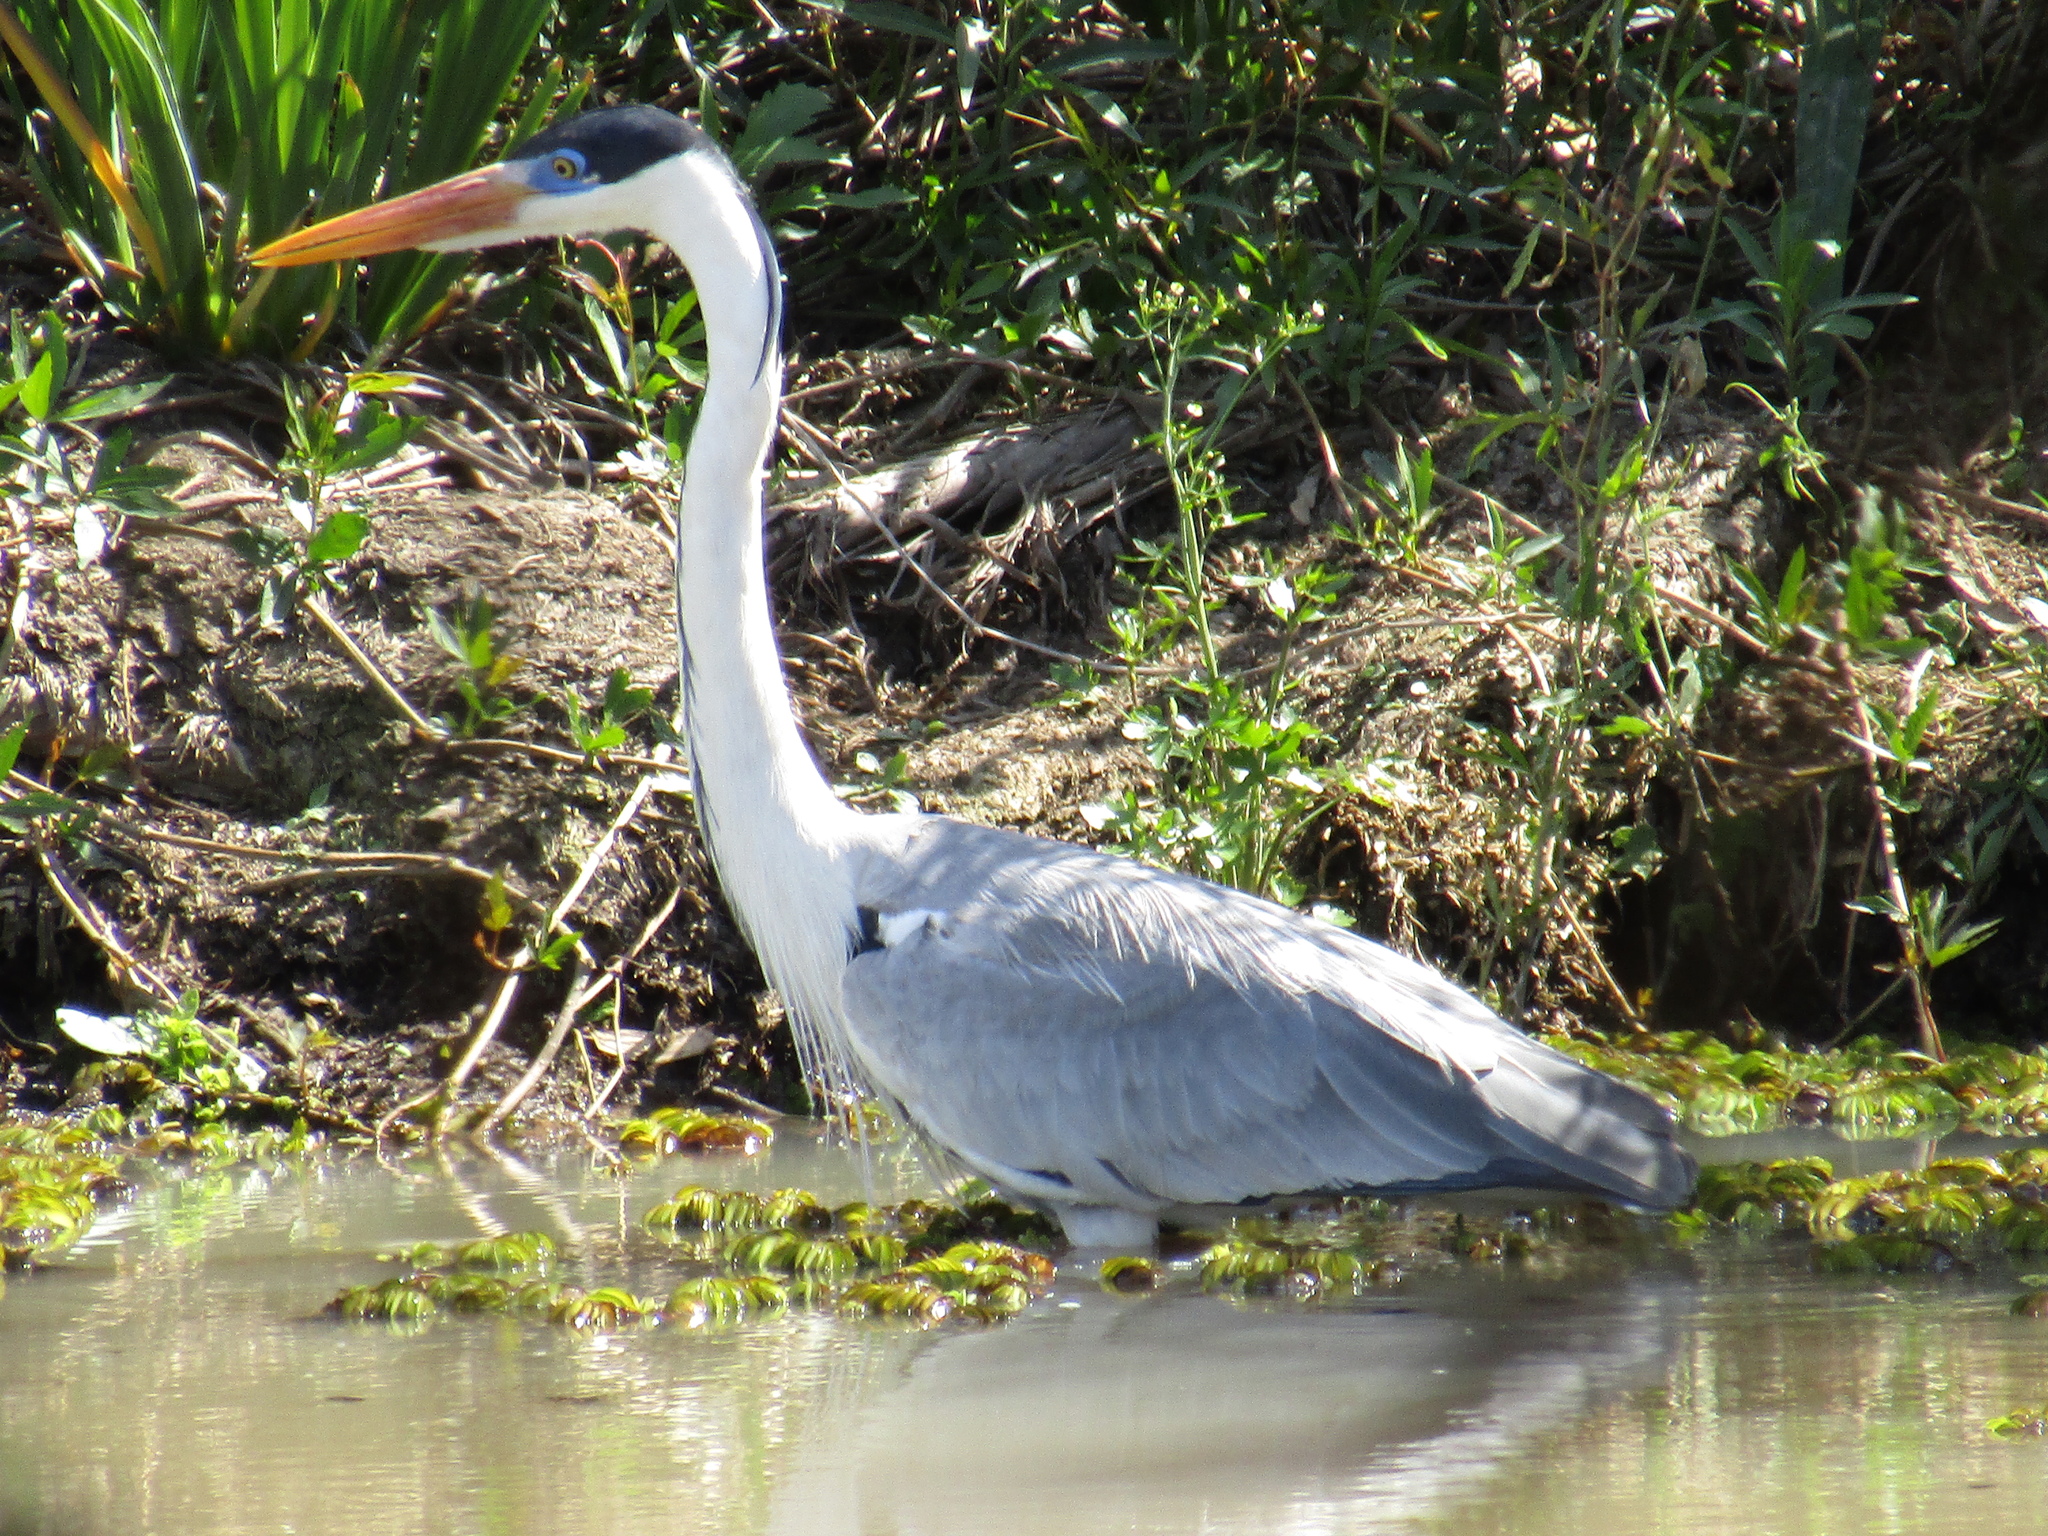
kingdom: Animalia
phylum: Chordata
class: Aves
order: Pelecaniformes
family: Ardeidae
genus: Ardea
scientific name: Ardea cocoi
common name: Cocoi heron
